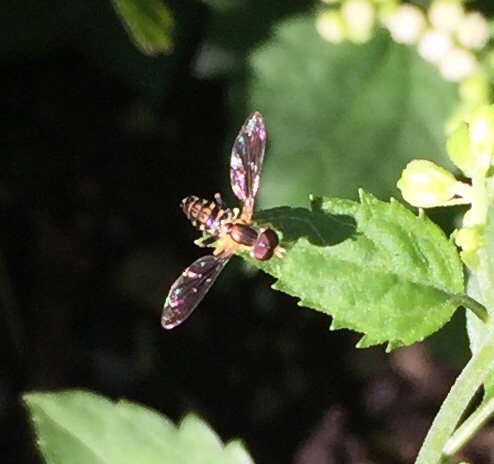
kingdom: Animalia
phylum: Arthropoda
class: Insecta
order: Diptera
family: Syrphidae
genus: Toxomerus
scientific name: Toxomerus geminatus
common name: Eastern calligrapher
